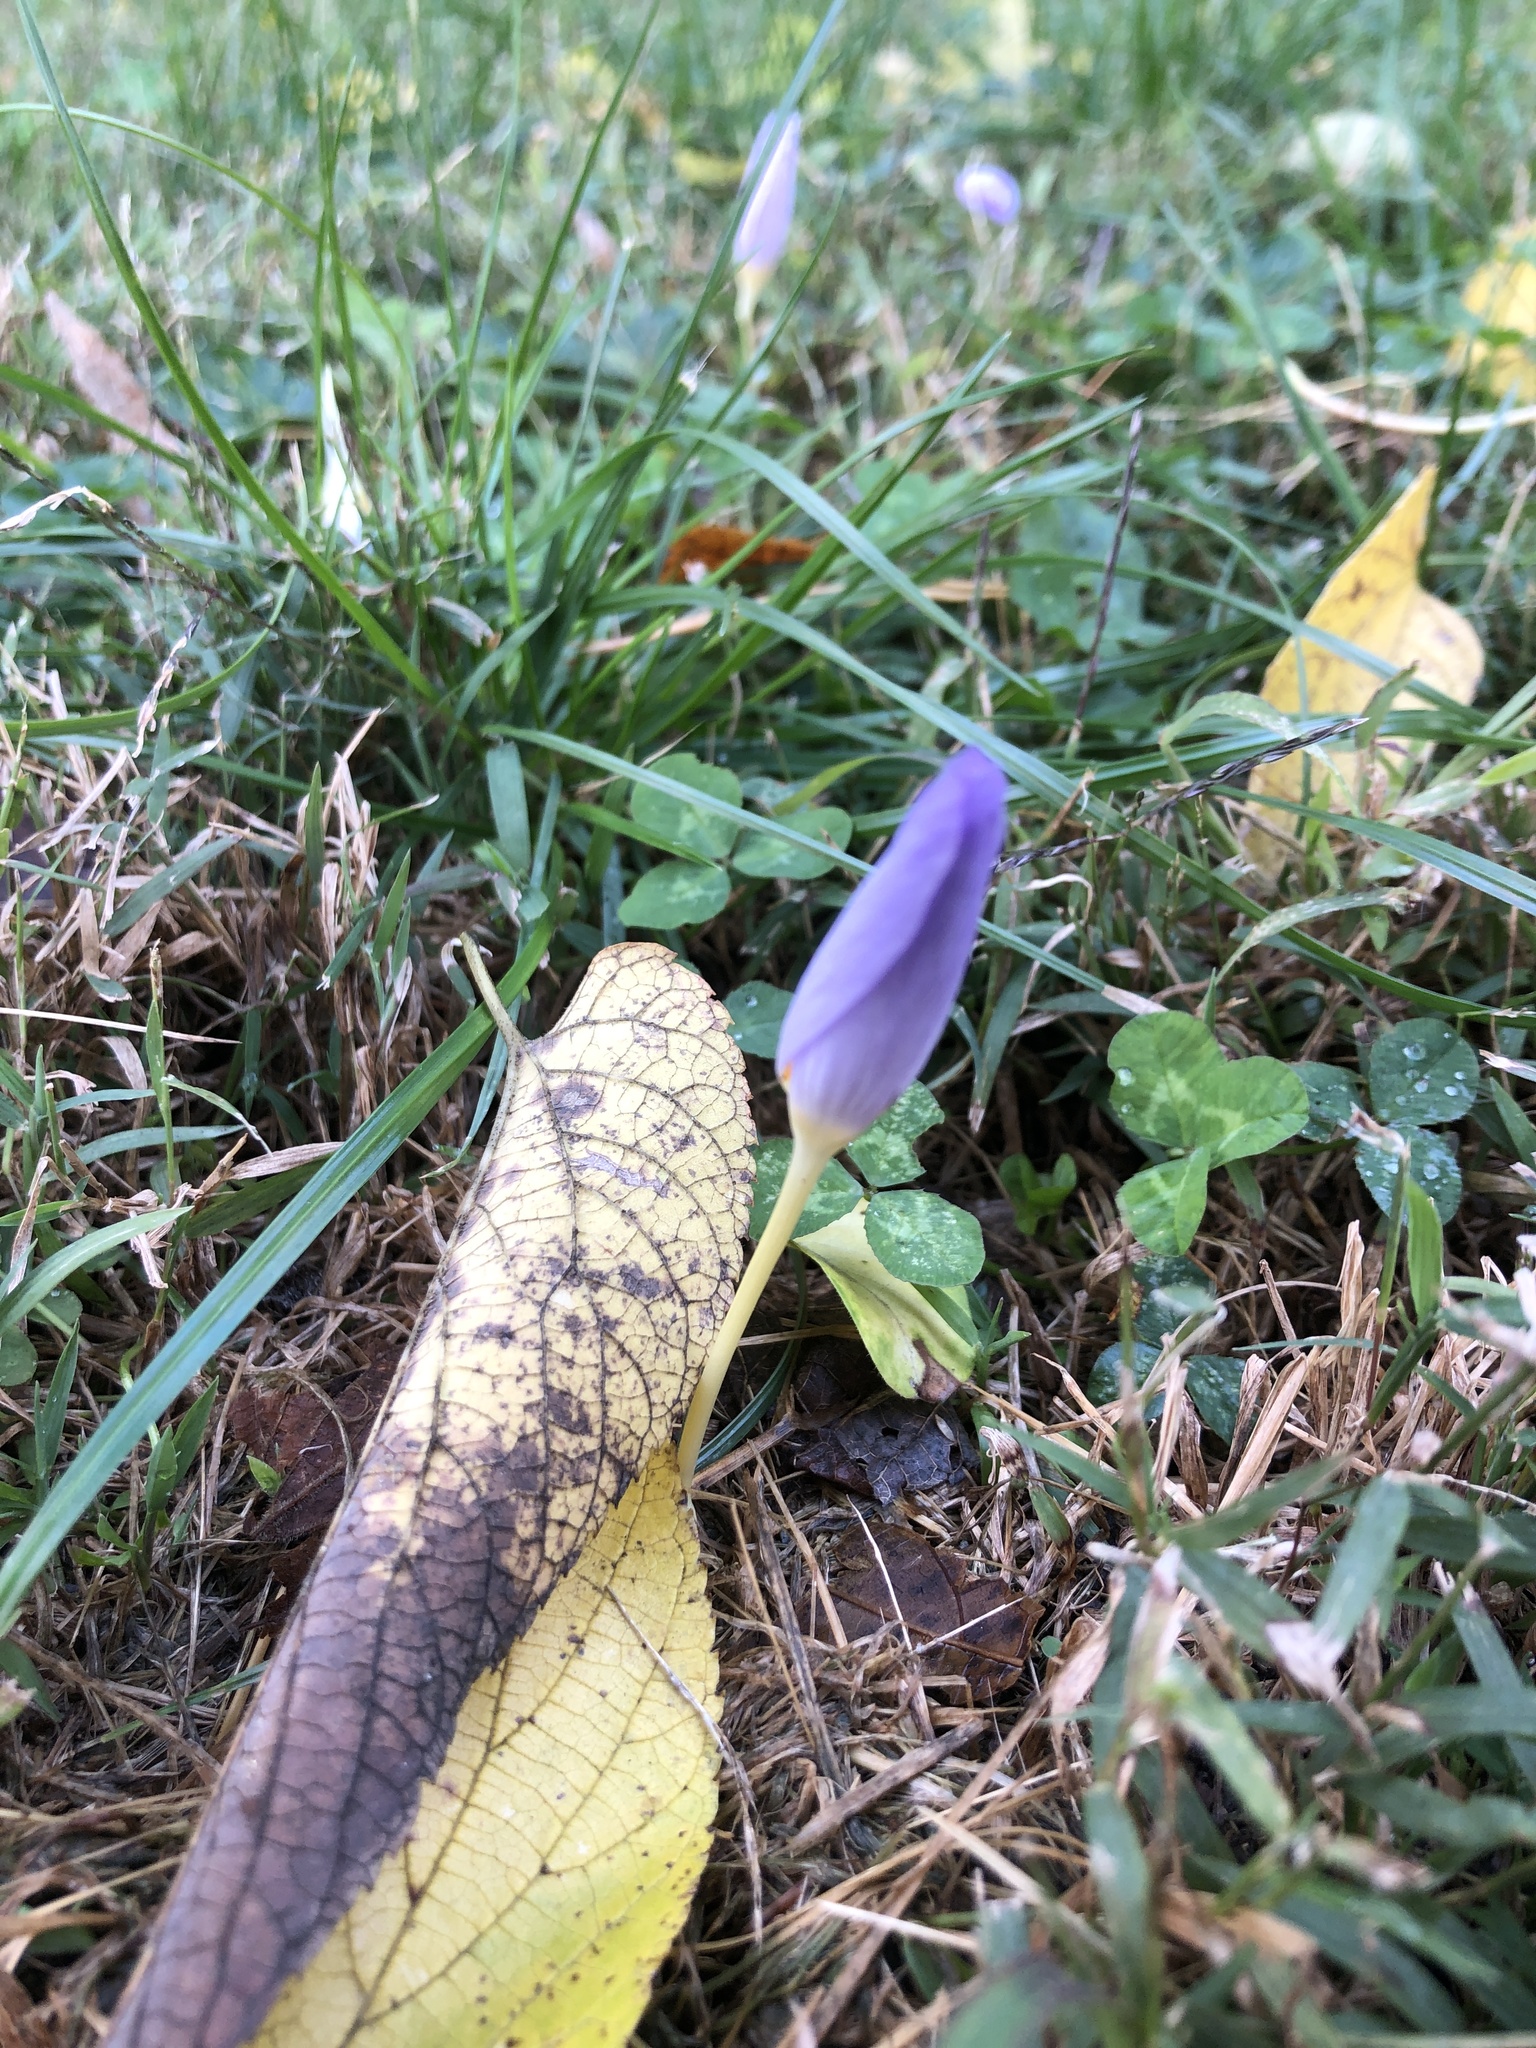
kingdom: Plantae
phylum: Tracheophyta
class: Liliopsida
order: Asparagales
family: Iridaceae
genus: Crocus
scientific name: Crocus kotschyanus
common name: Kotschy's crocus
